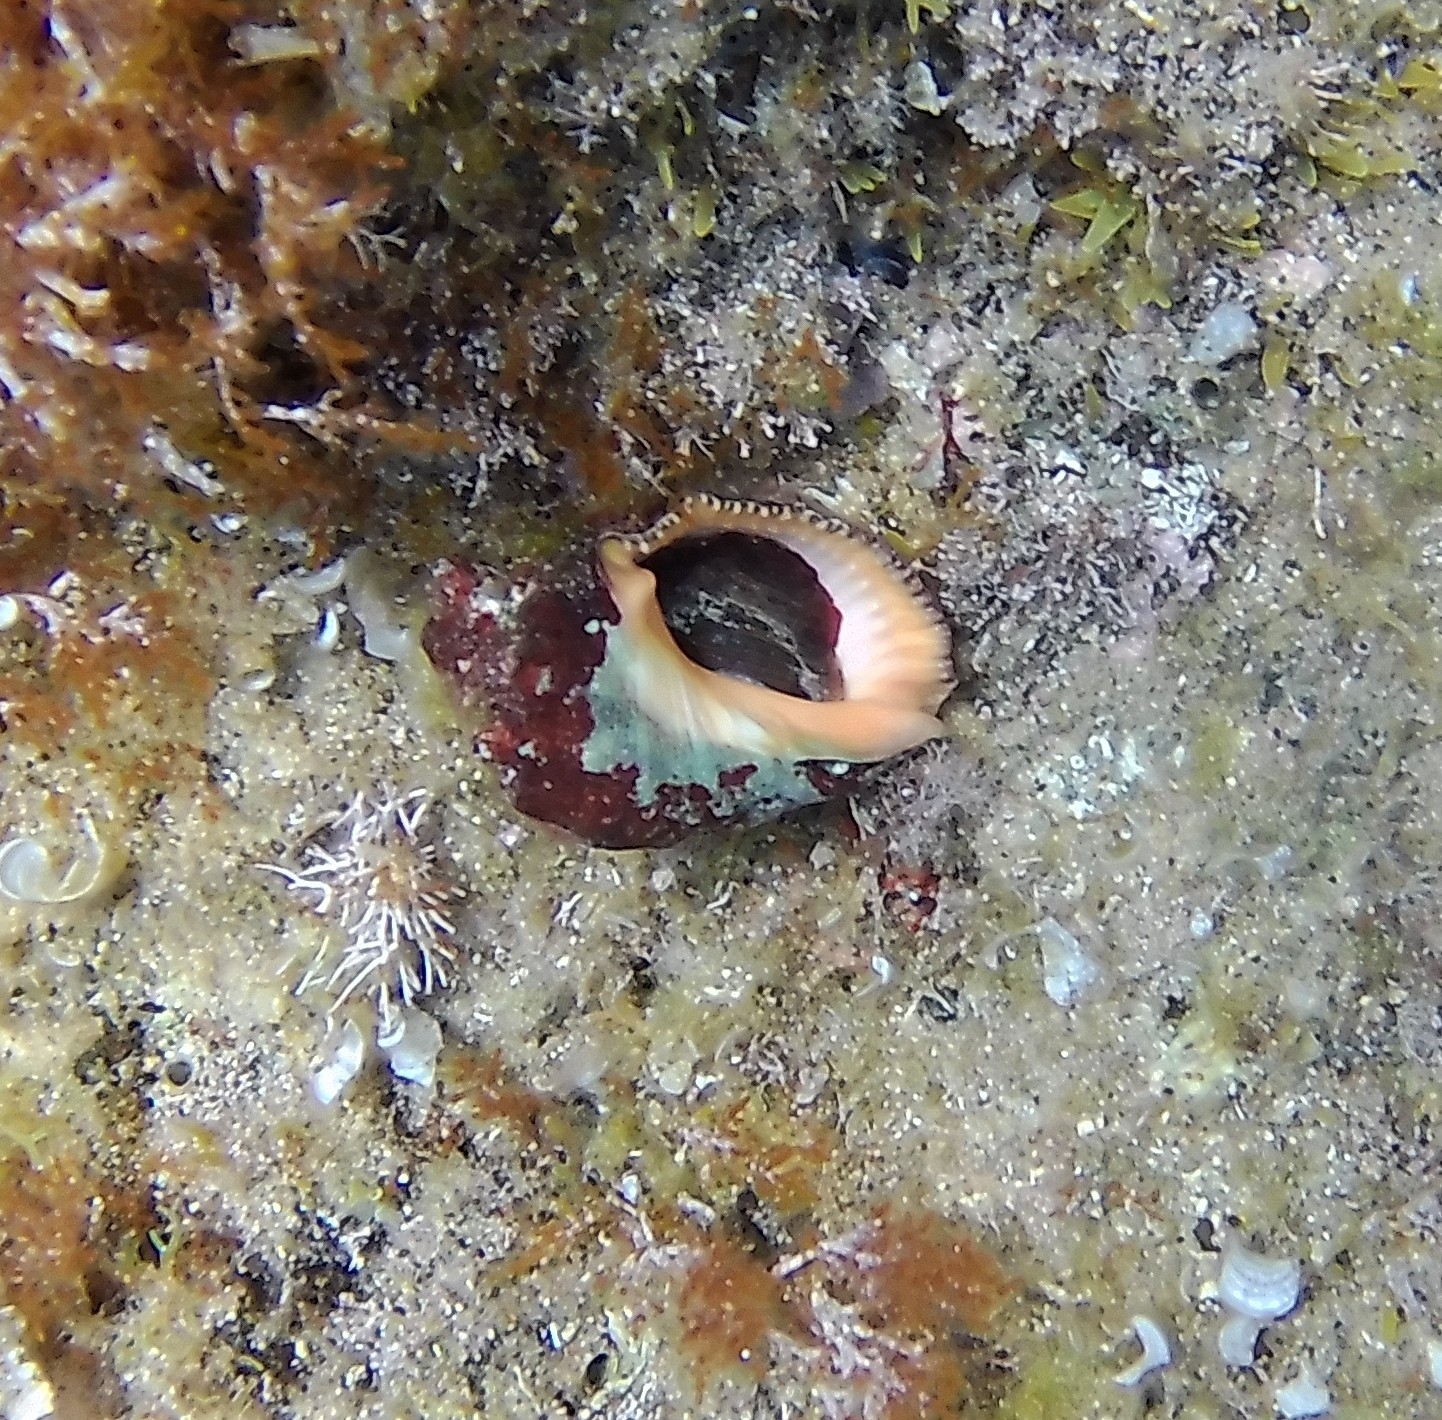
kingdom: Animalia
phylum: Mollusca
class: Gastropoda
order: Neogastropoda
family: Muricidae
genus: Stramonita
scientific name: Stramonita haemastoma
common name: Florida dog winkle
